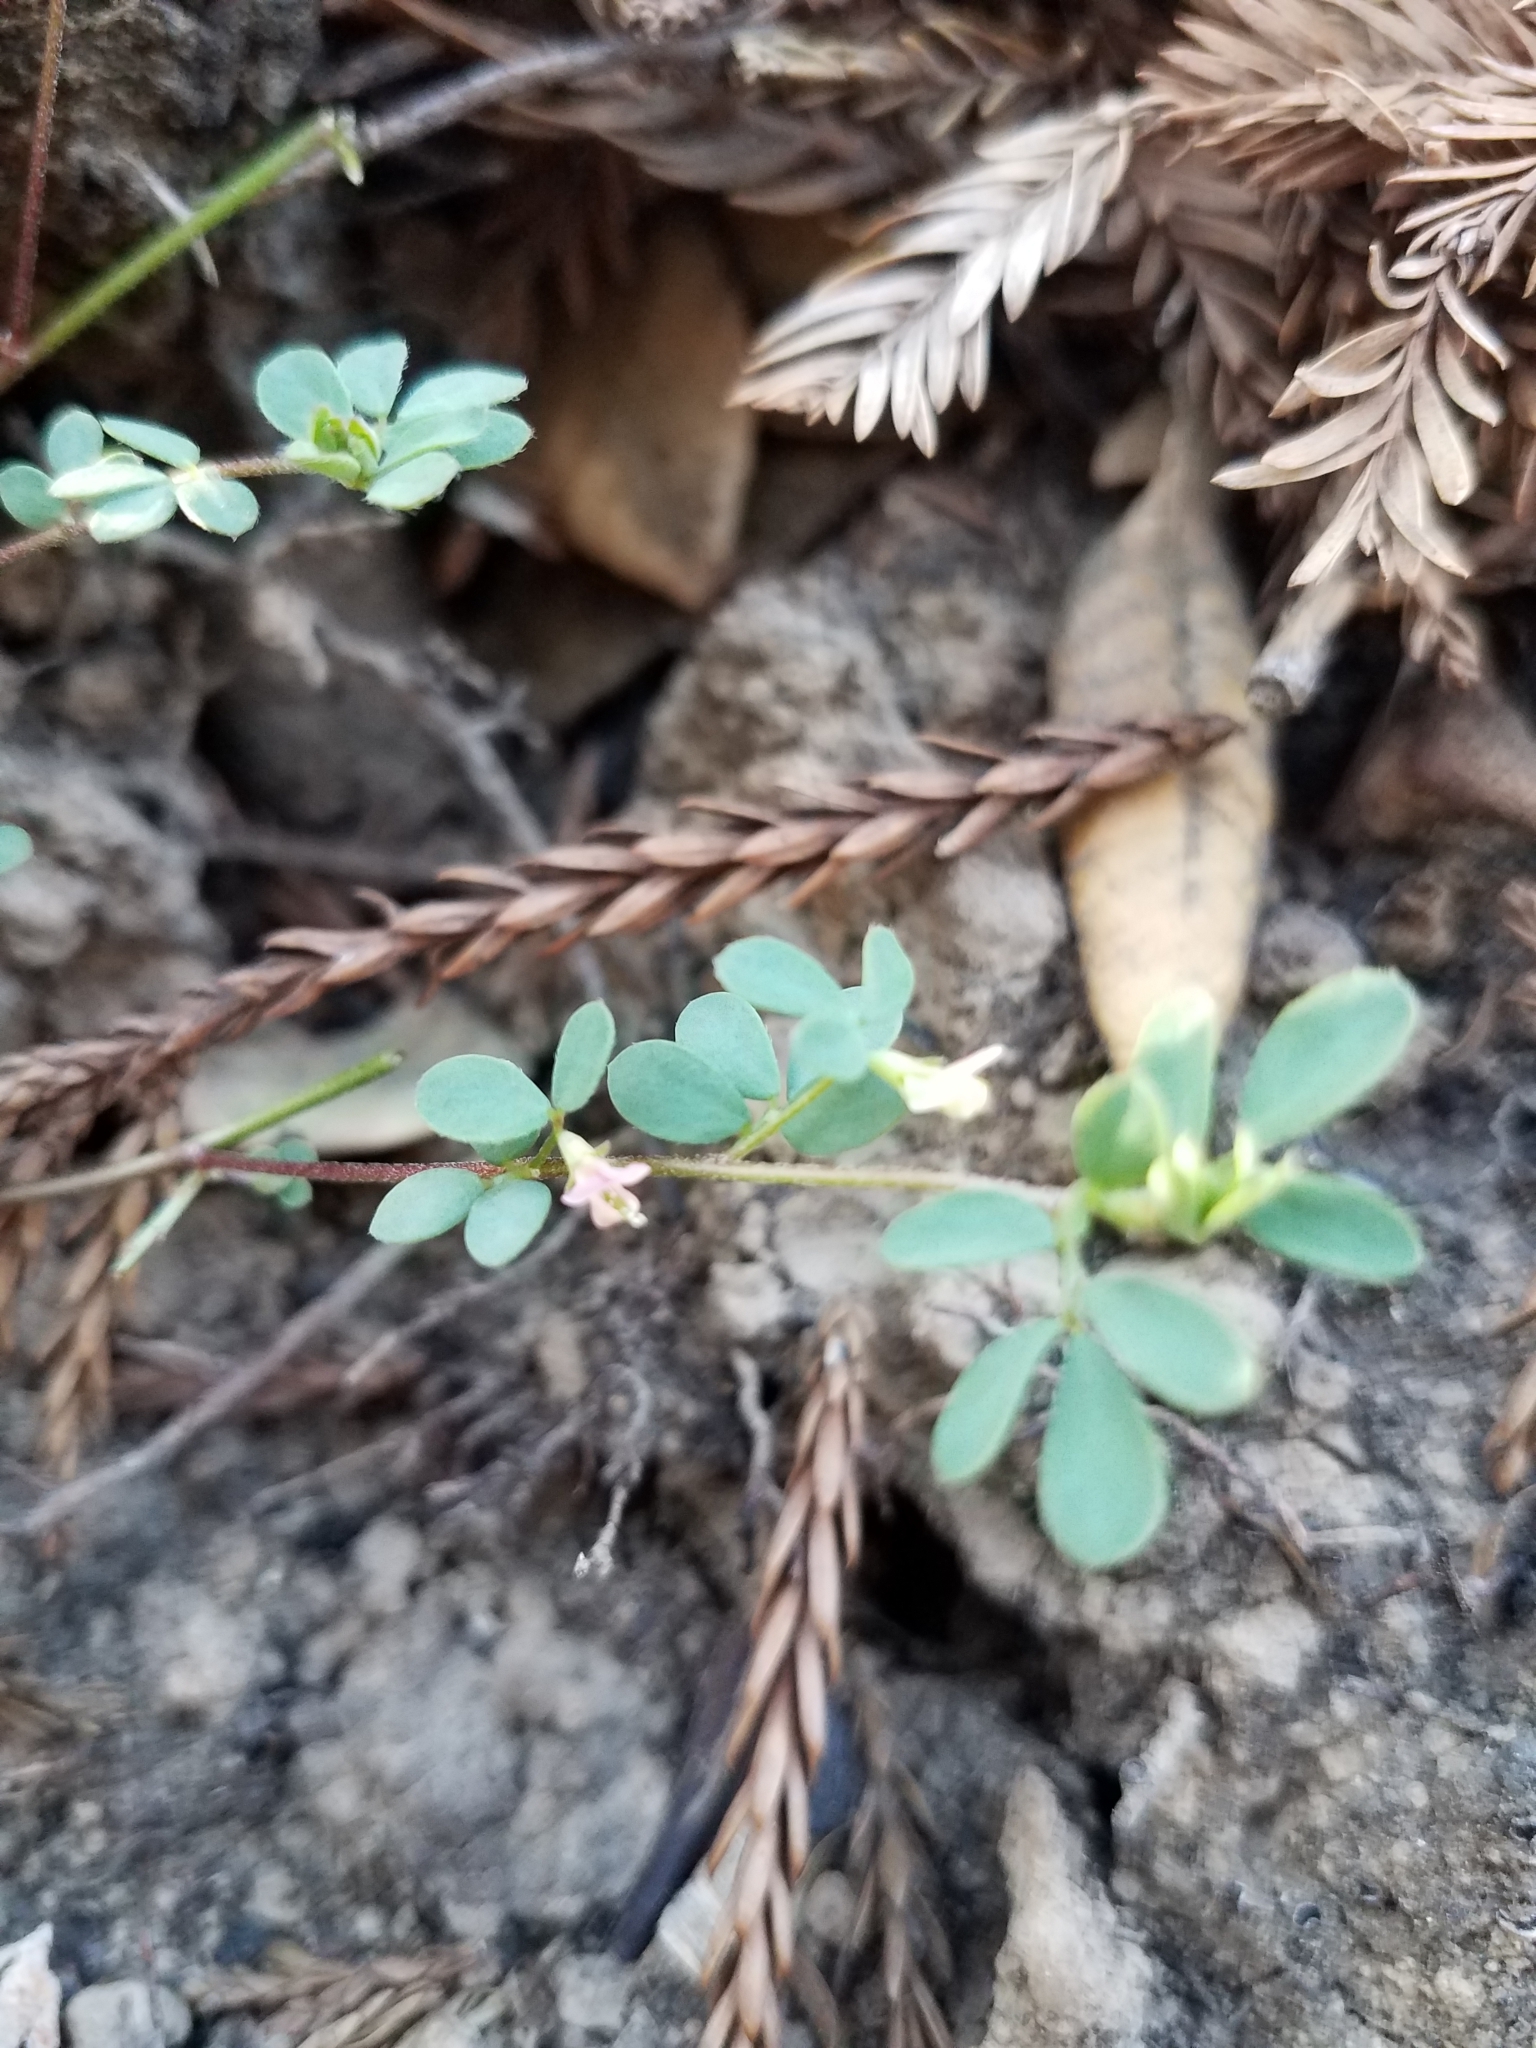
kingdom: Plantae
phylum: Tracheophyta
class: Magnoliopsida
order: Fabales
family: Fabaceae
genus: Acmispon
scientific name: Acmispon parviflorus
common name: Desert deer-vetch
